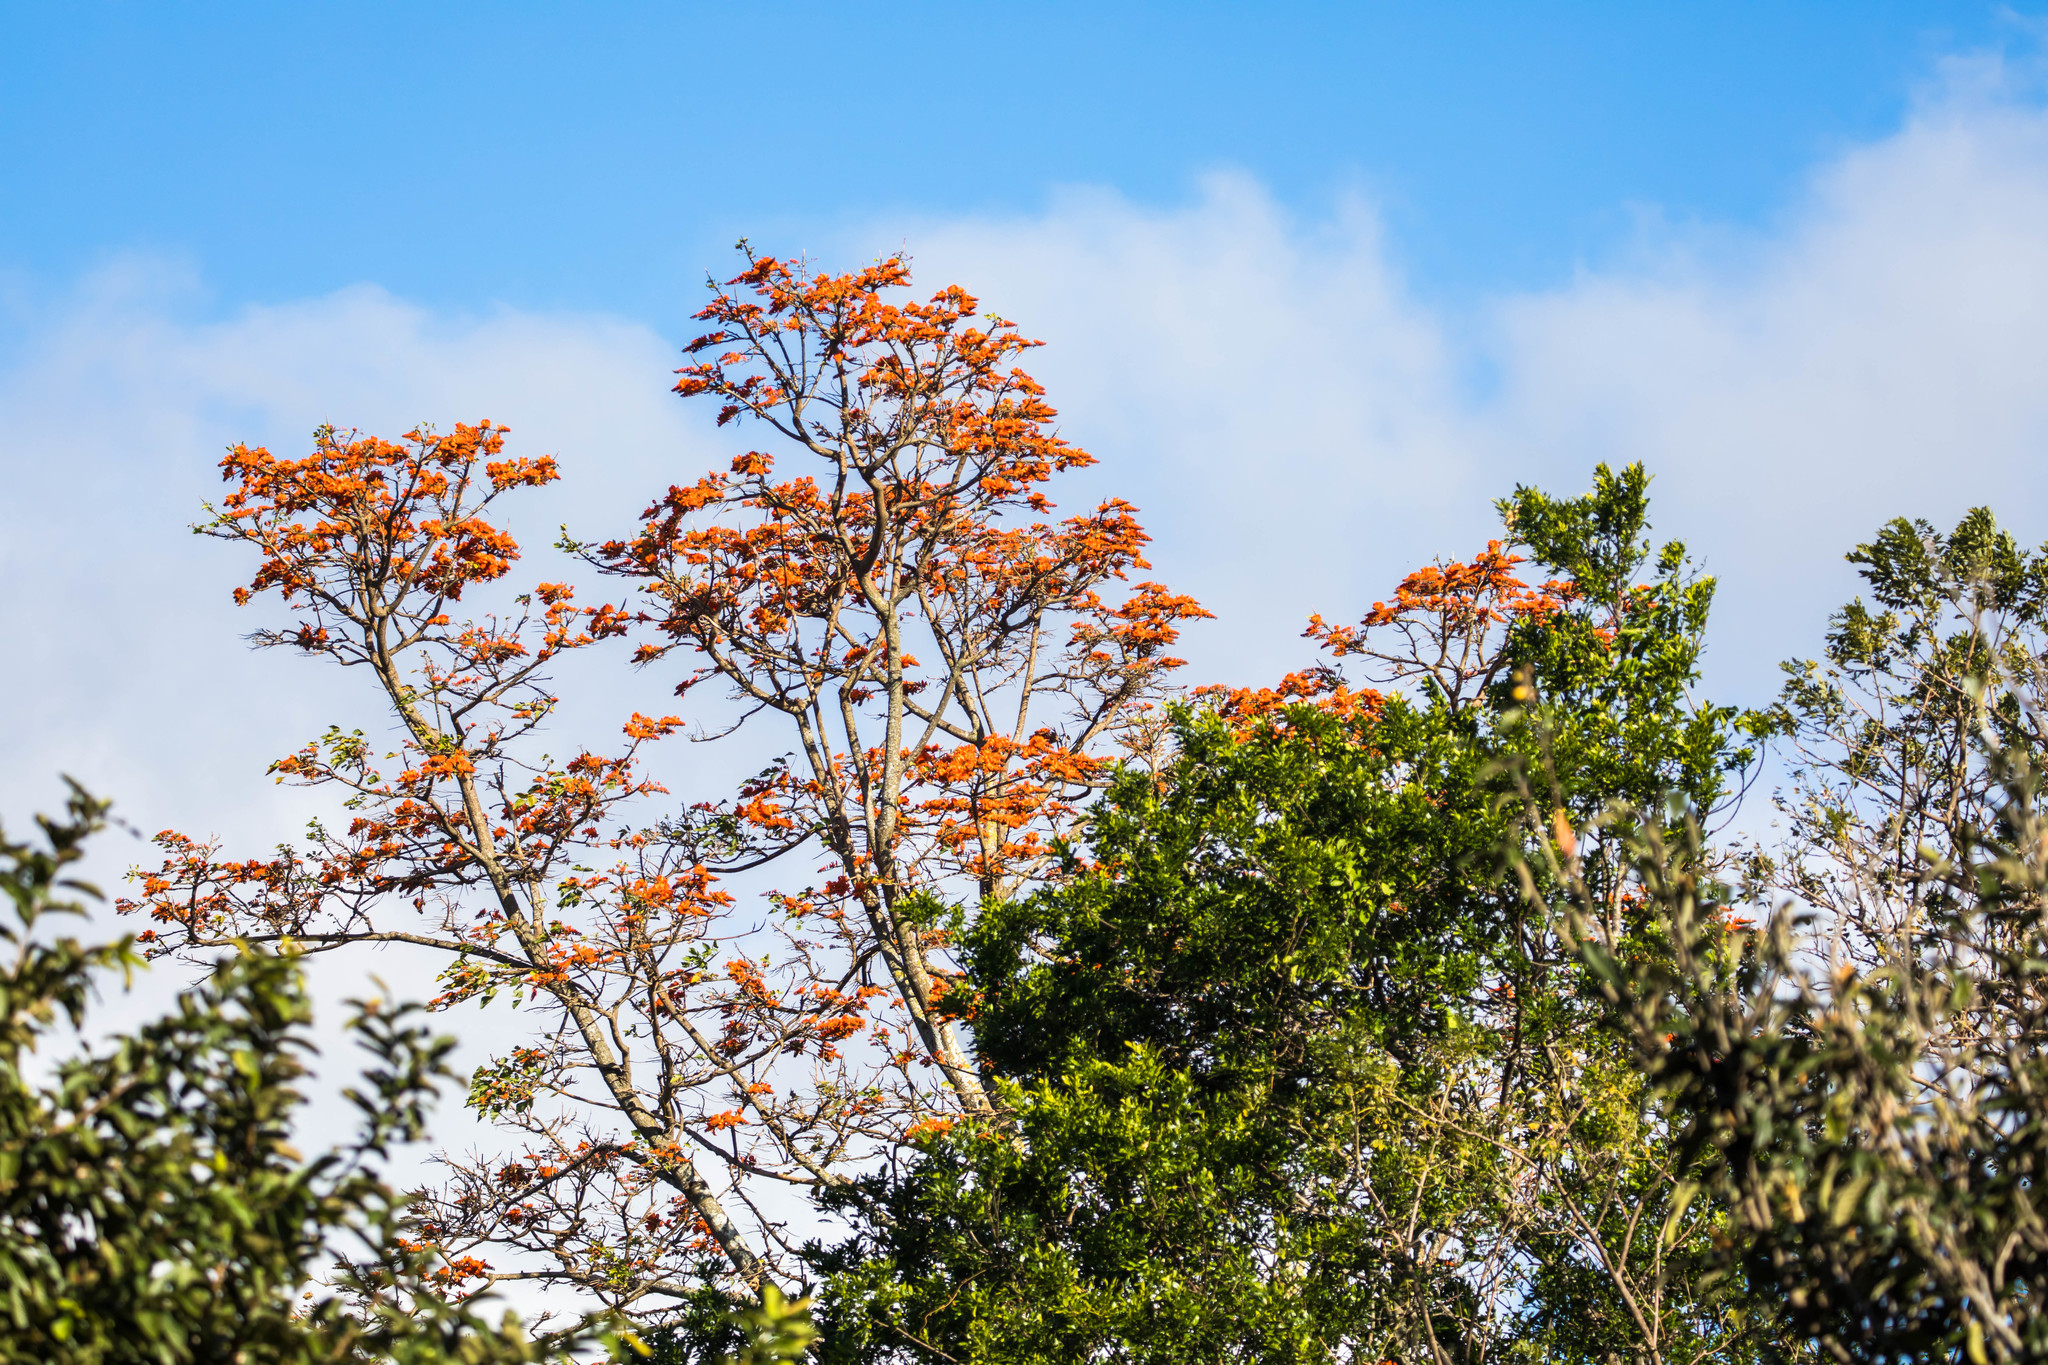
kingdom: Plantae
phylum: Tracheophyta
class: Magnoliopsida
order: Fabales
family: Fabaceae
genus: Erythrina
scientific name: Erythrina poeppigiana
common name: Coral tree
